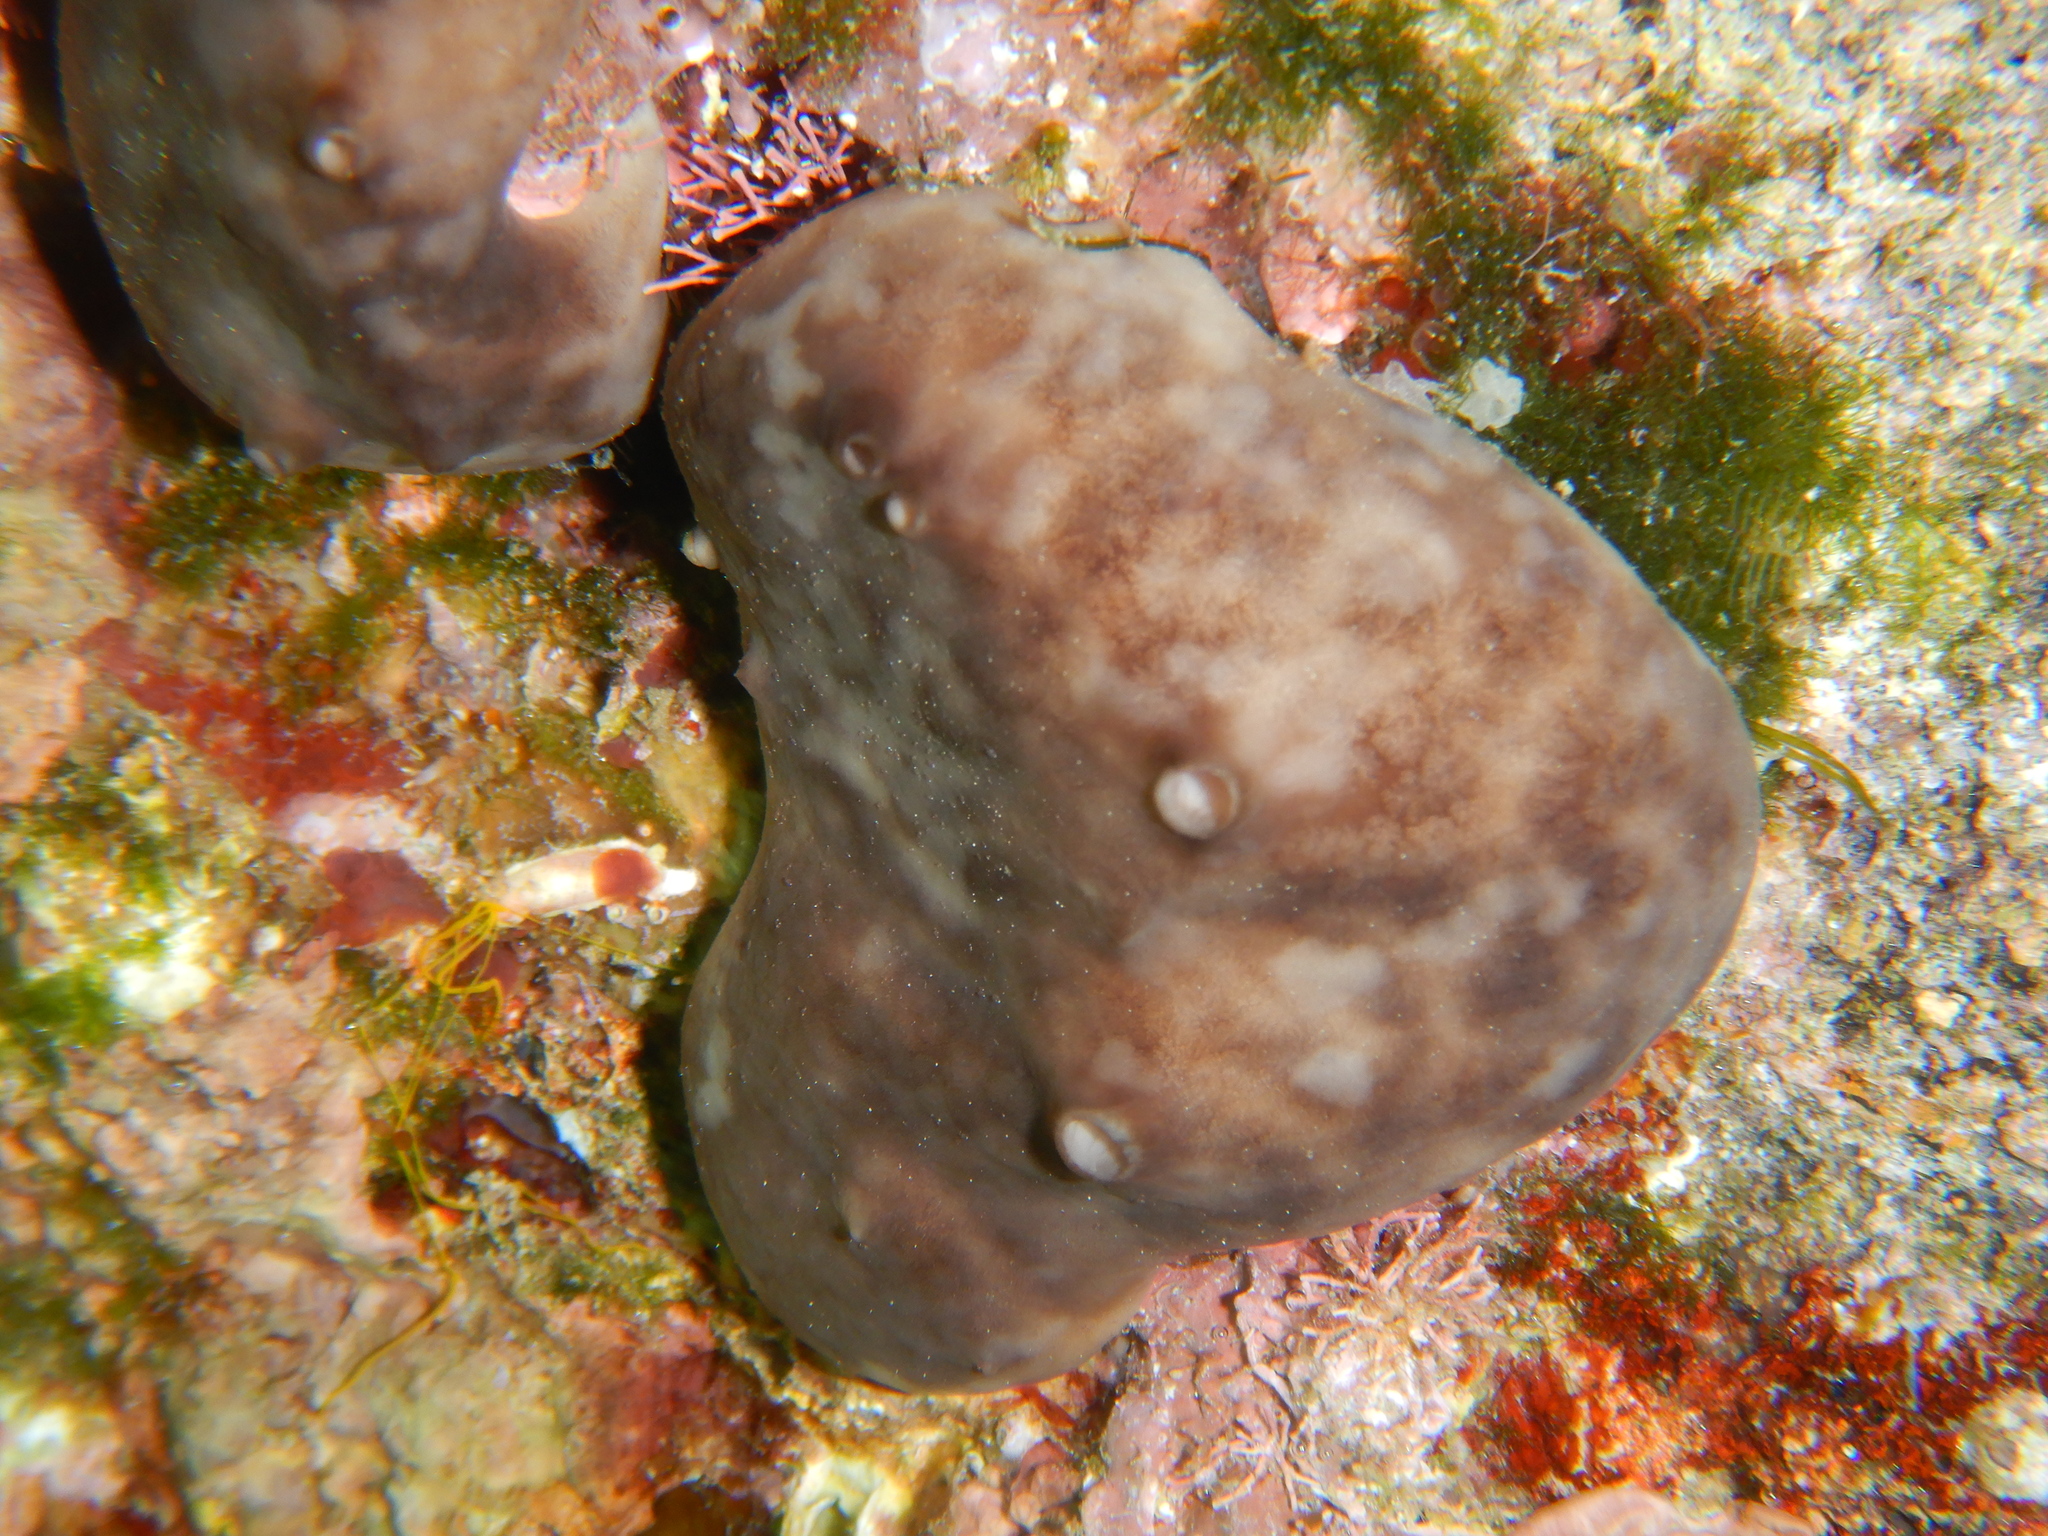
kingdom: Animalia
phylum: Porifera
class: Demospongiae
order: Chondrosiida
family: Chondrosiidae
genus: Chondrosia
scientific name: Chondrosia reniformis
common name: Chicken liver sponge
